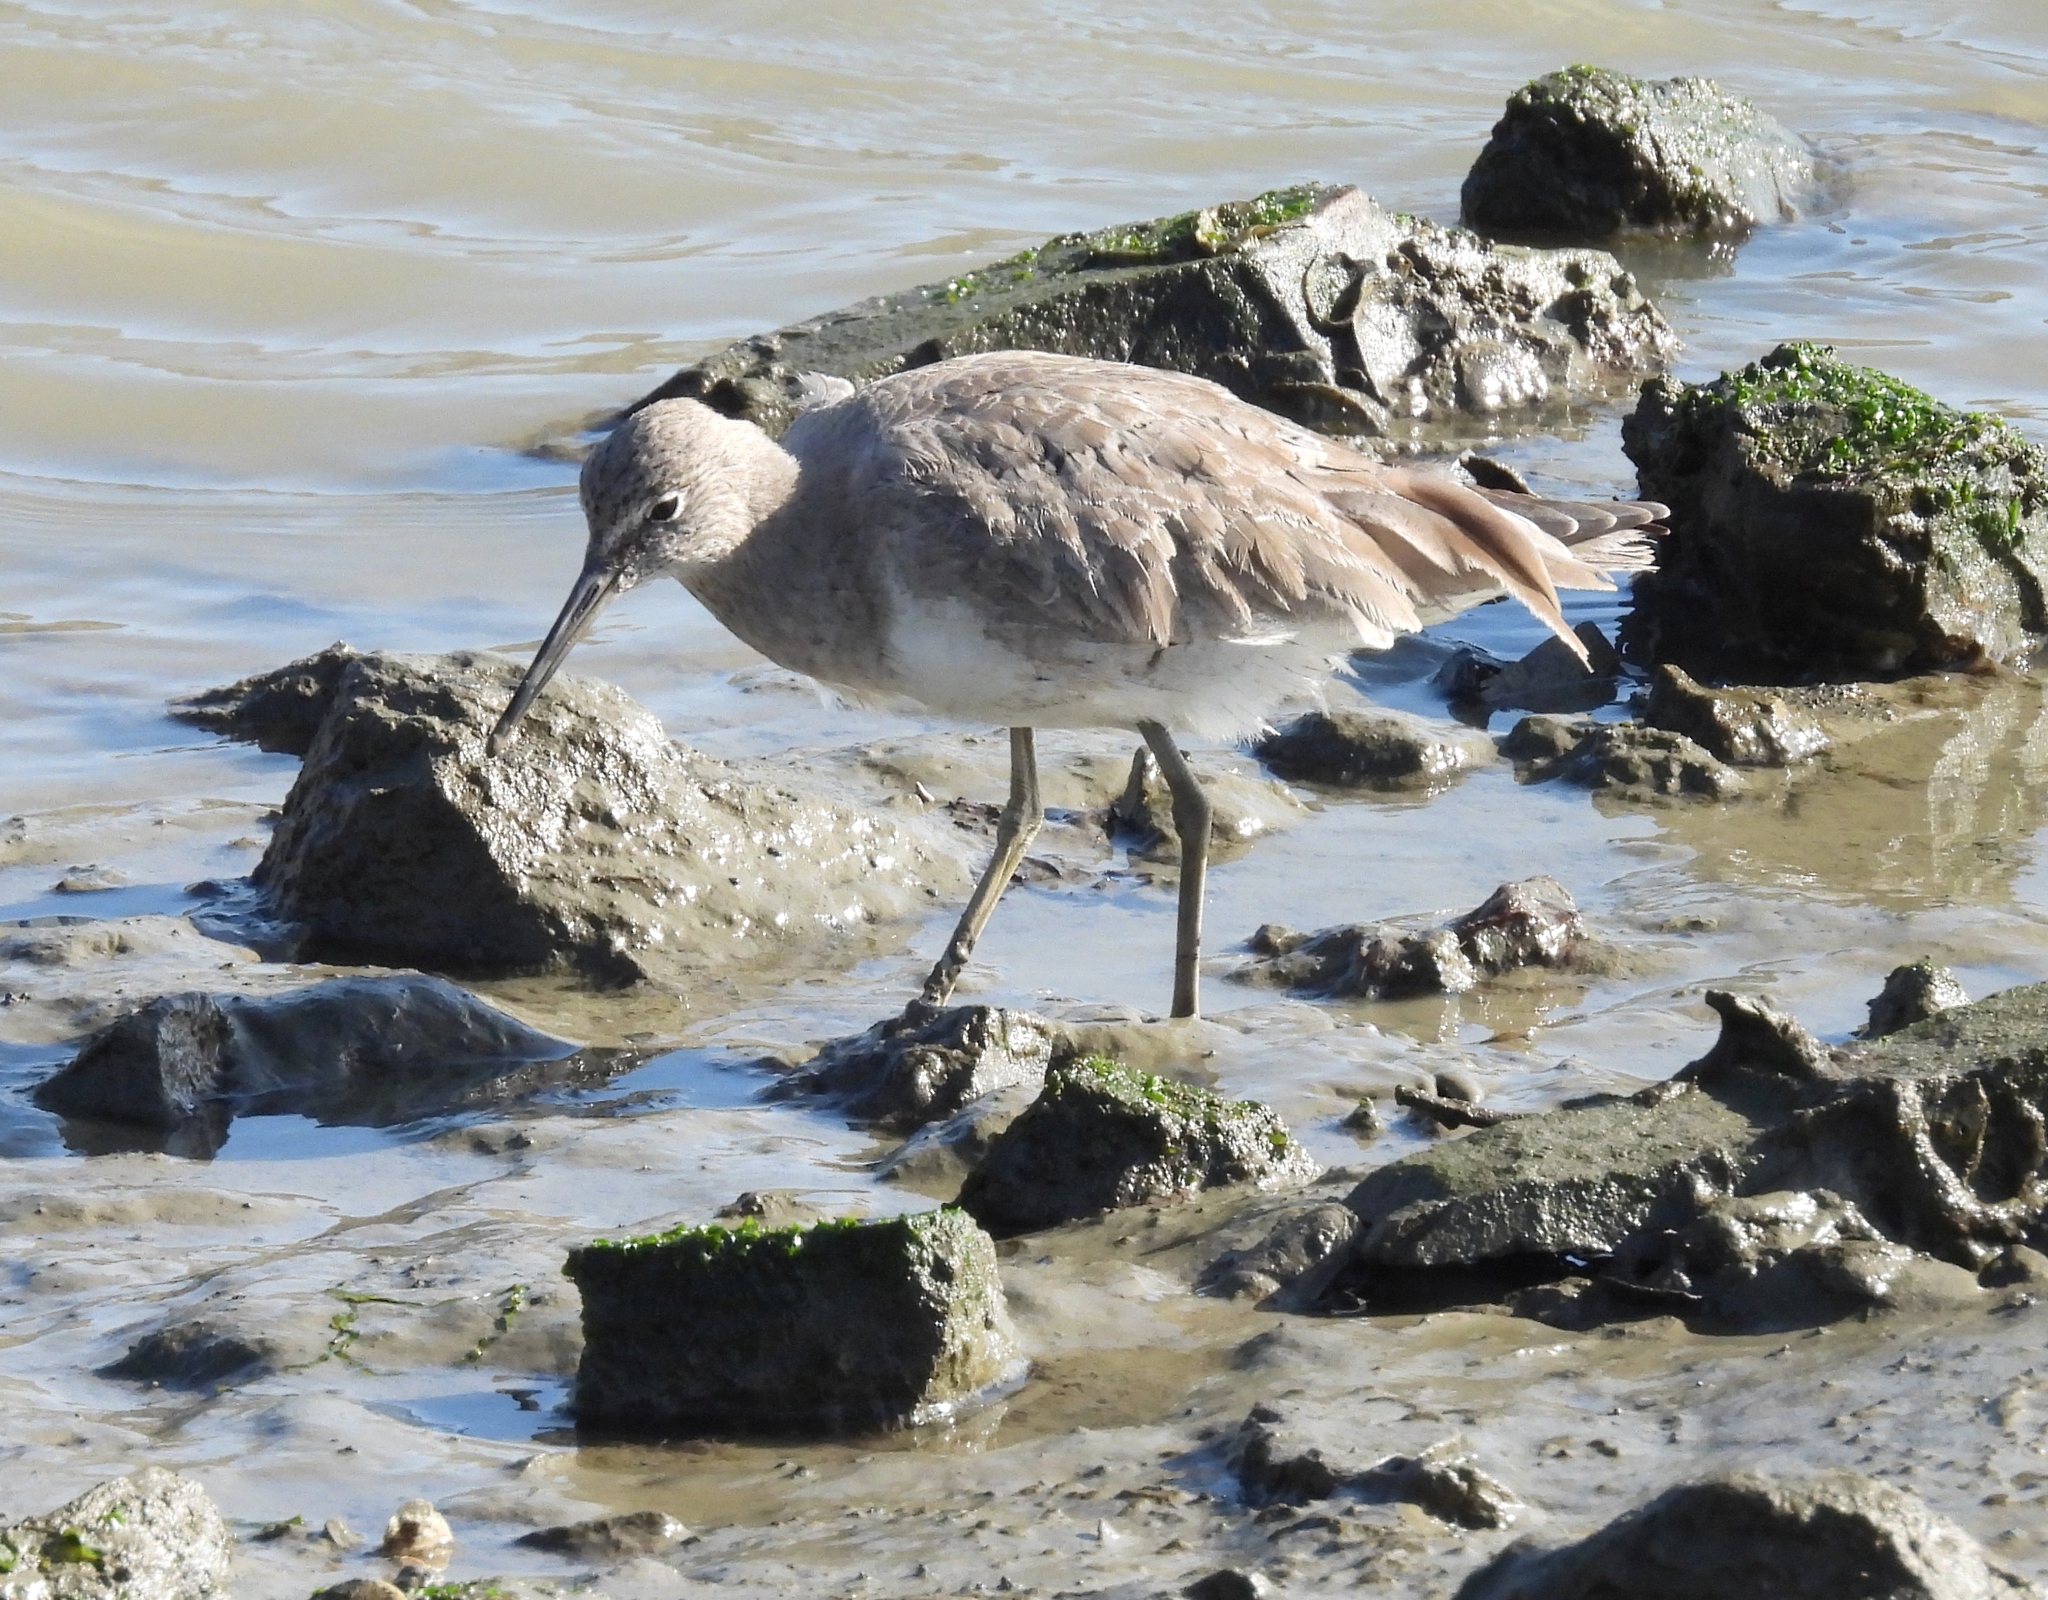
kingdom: Animalia
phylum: Chordata
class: Aves
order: Charadriiformes
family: Scolopacidae
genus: Tringa
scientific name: Tringa semipalmata
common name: Willet
